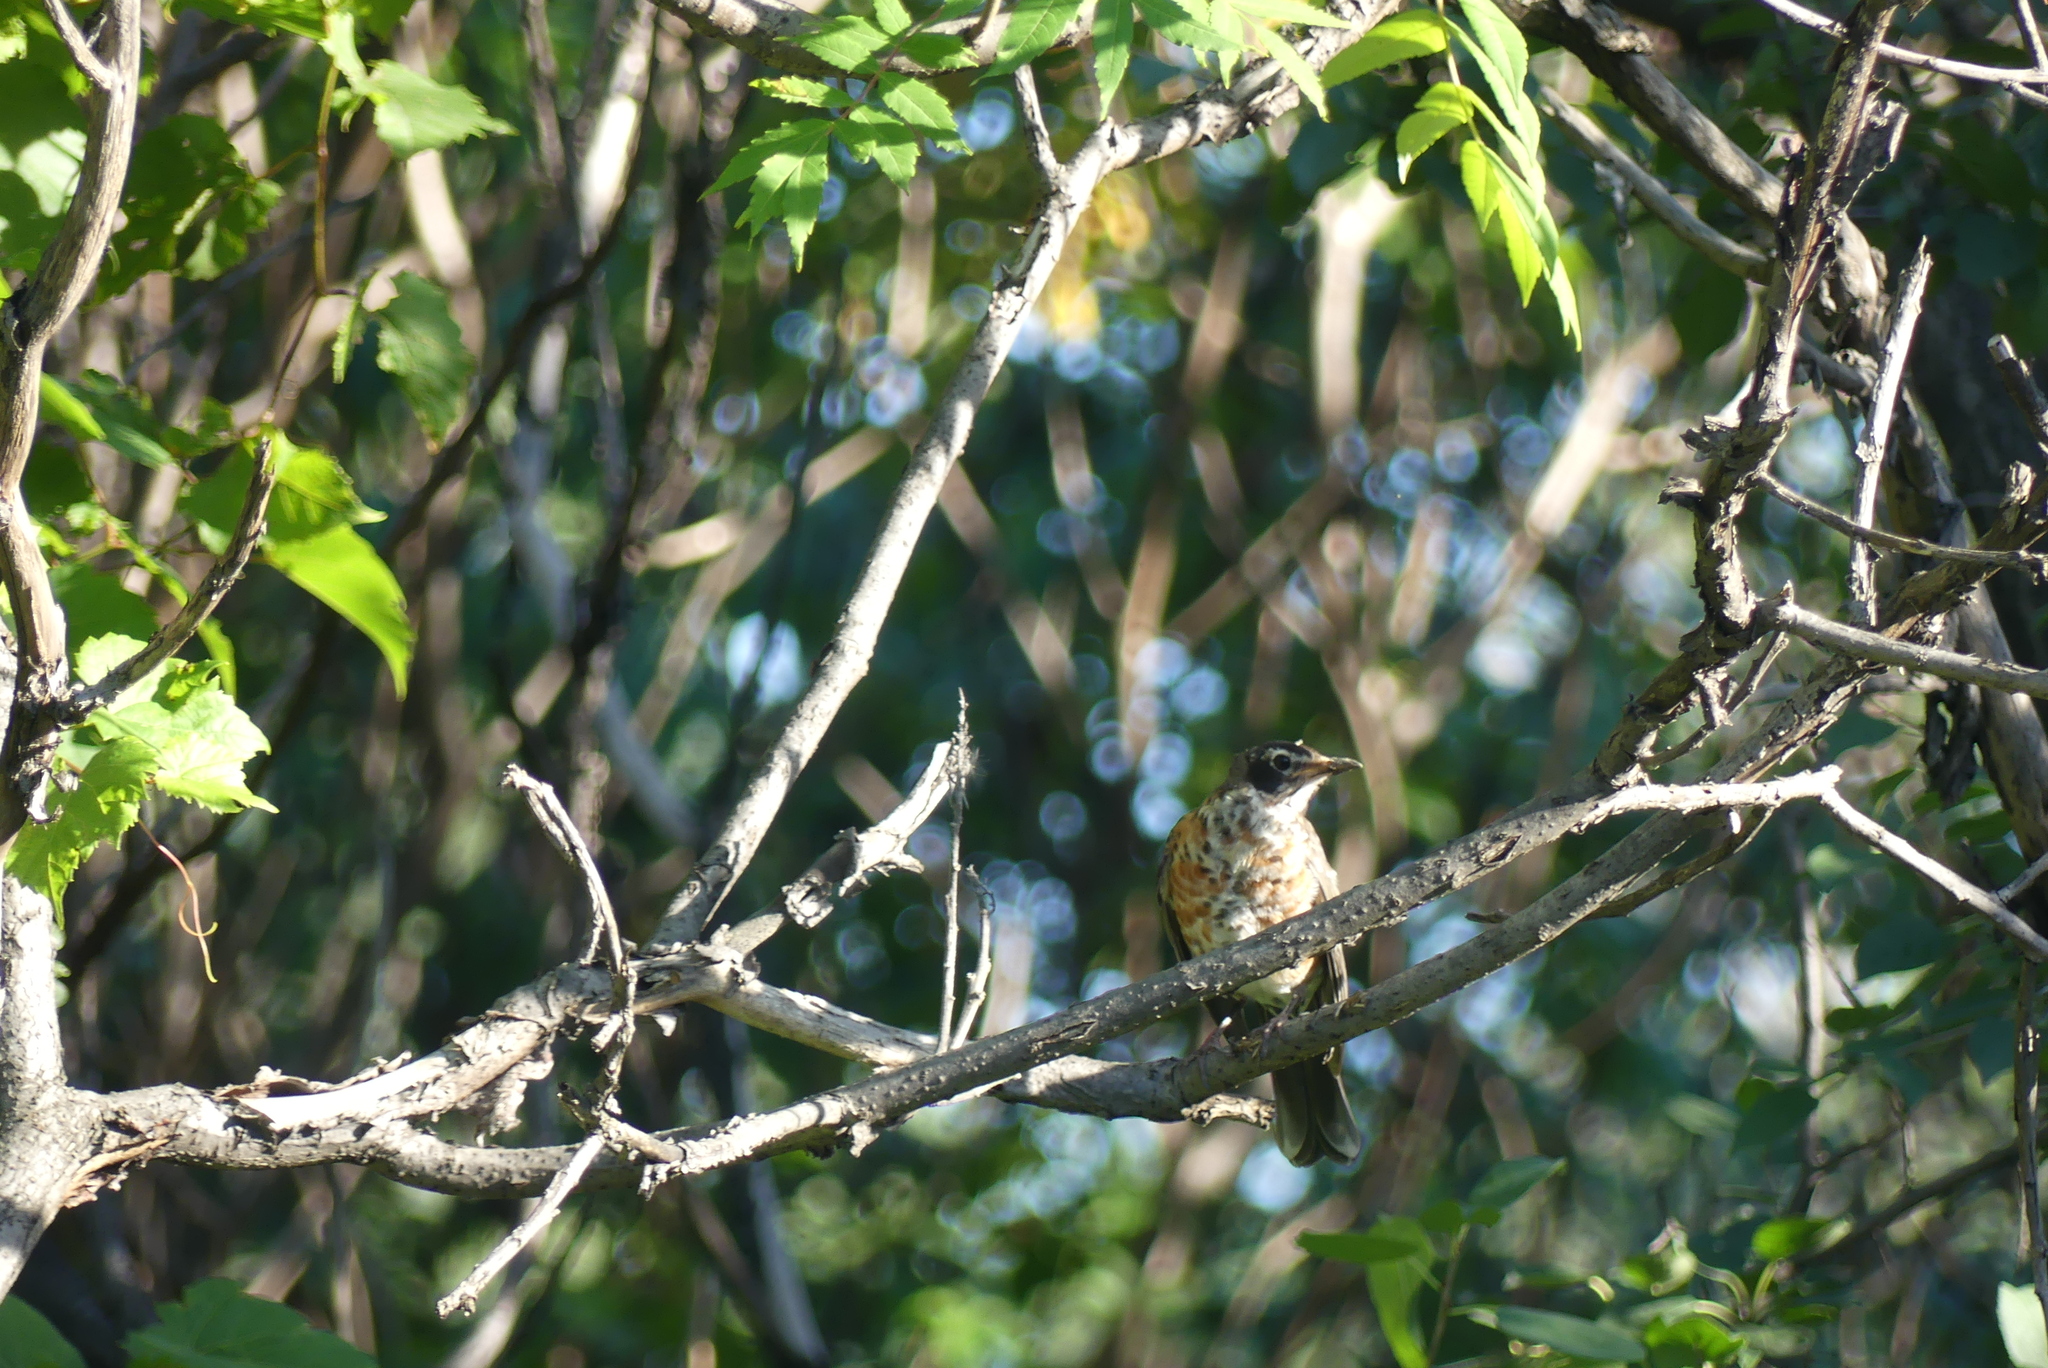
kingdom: Animalia
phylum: Chordata
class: Aves
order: Passeriformes
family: Turdidae
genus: Turdus
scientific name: Turdus migratorius
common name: American robin
